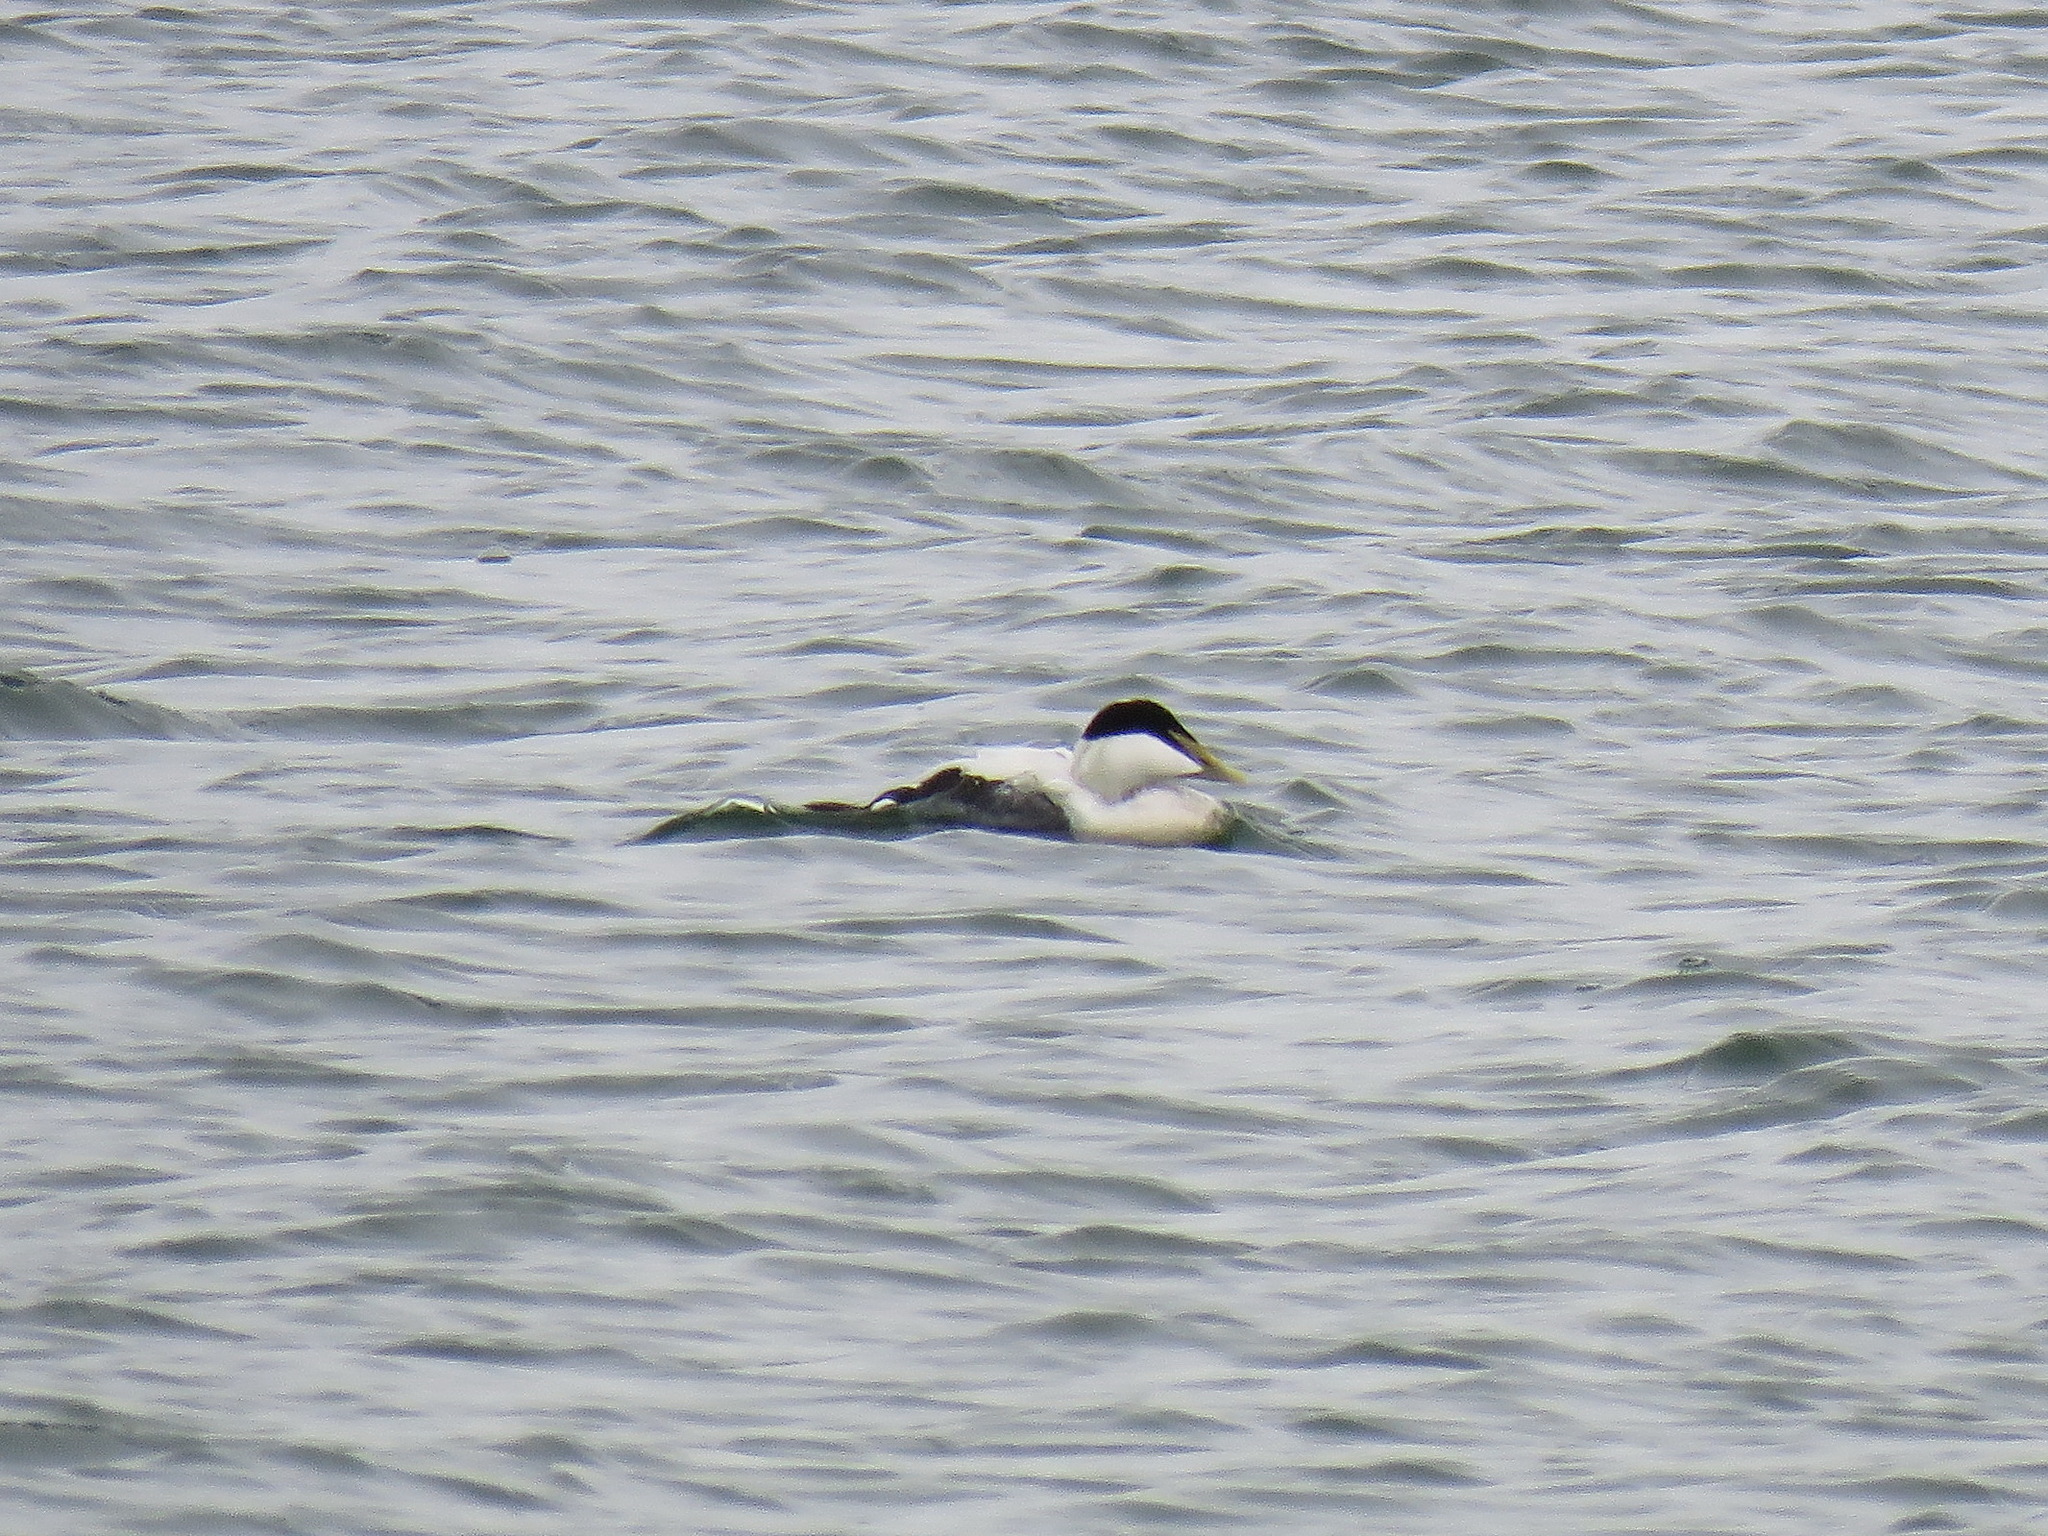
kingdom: Animalia
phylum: Chordata
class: Aves
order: Anseriformes
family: Anatidae
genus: Somateria
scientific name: Somateria mollissima
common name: Common eider
